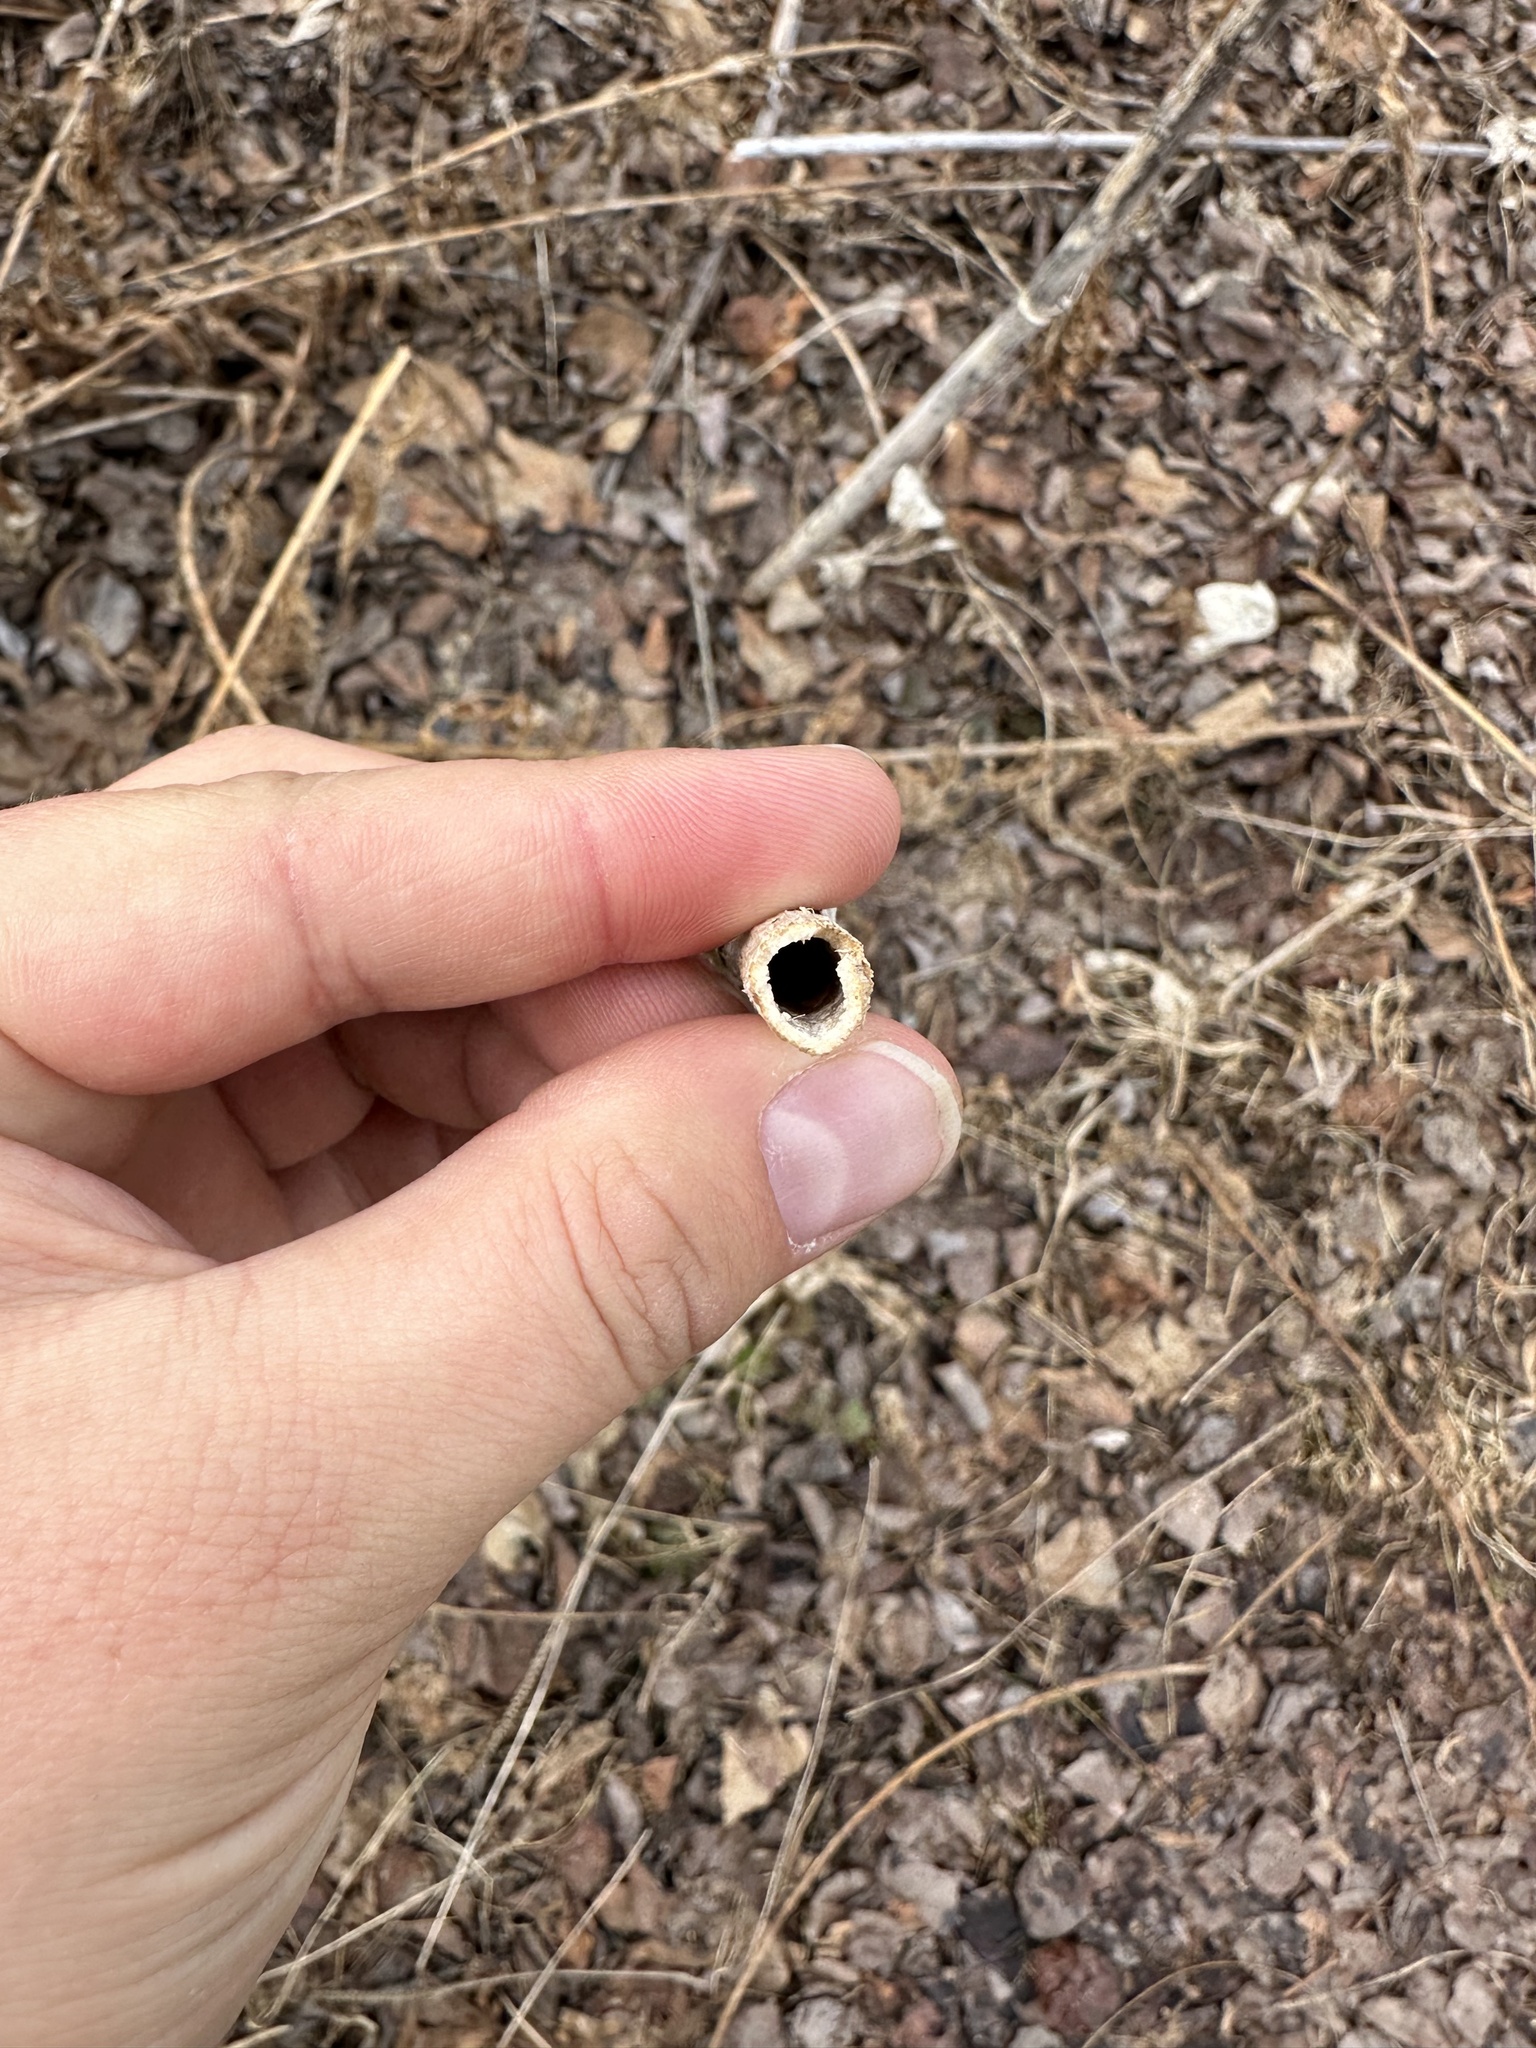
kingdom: Plantae
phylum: Tracheophyta
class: Magnoliopsida
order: Apiales
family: Apiaceae
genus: Heracleum
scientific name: Heracleum maximum
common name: American cow parsnip
